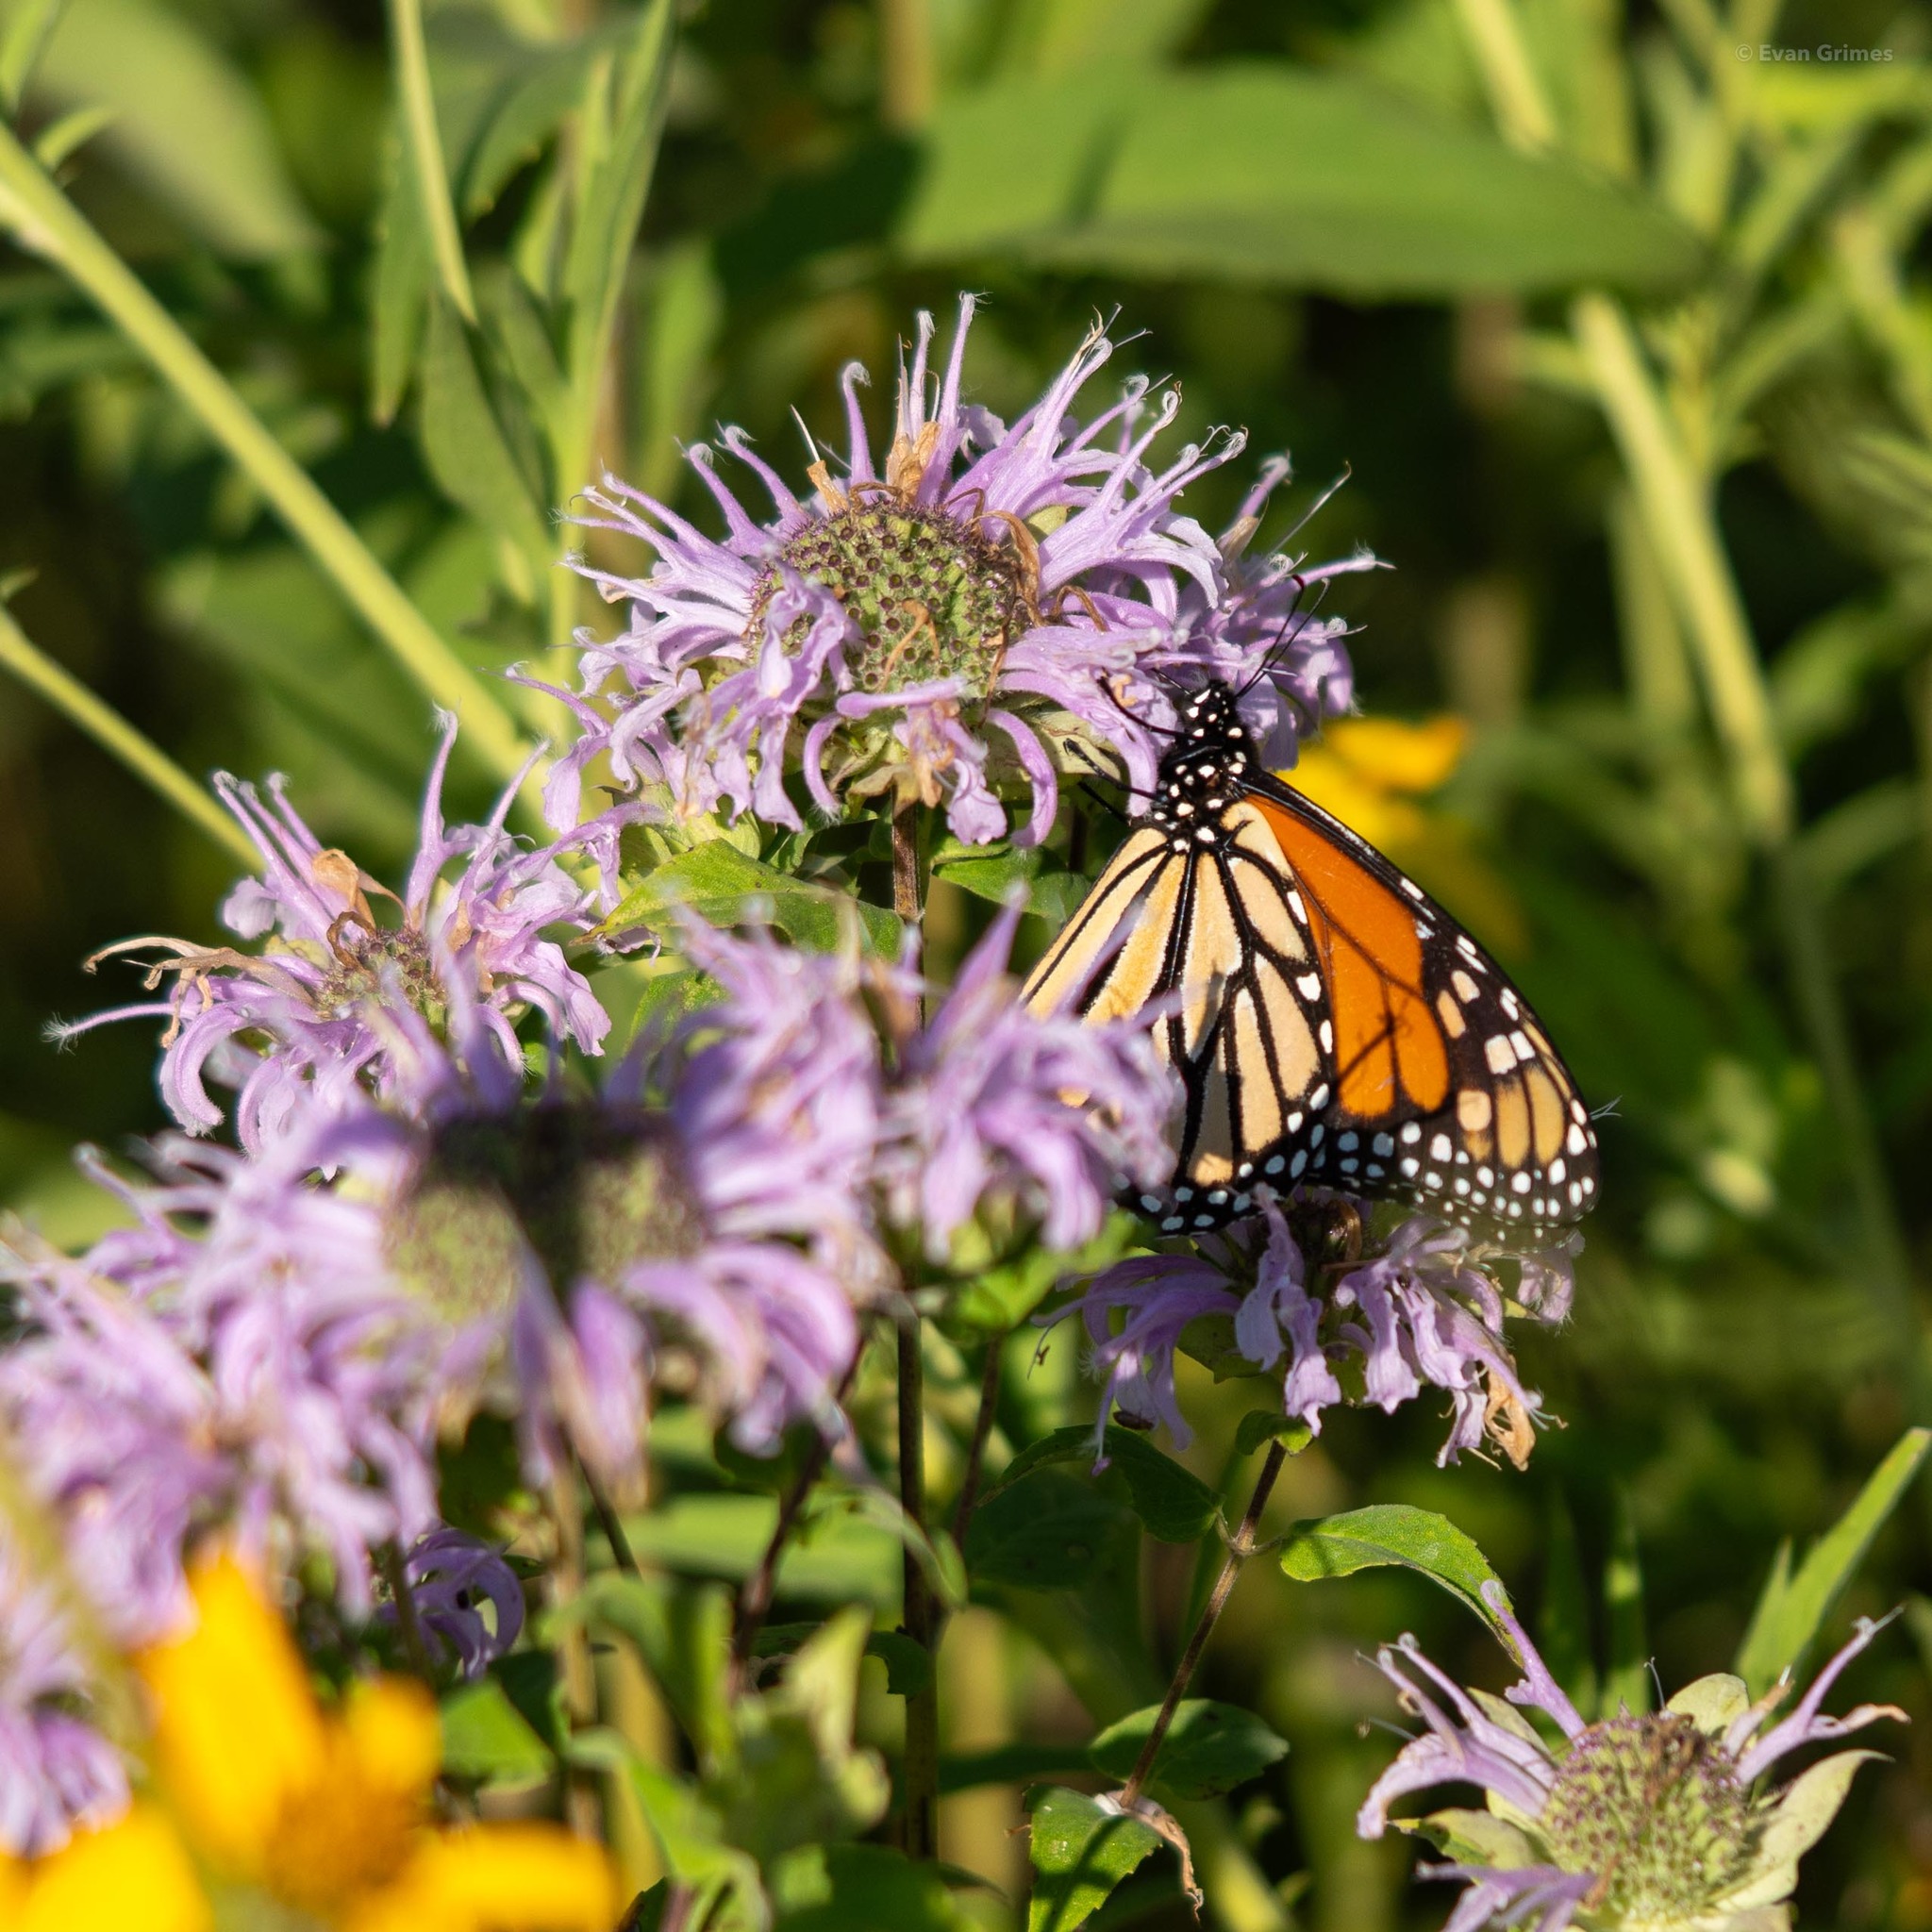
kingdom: Animalia
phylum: Arthropoda
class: Insecta
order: Lepidoptera
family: Nymphalidae
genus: Danaus
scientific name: Danaus plexippus
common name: Monarch
